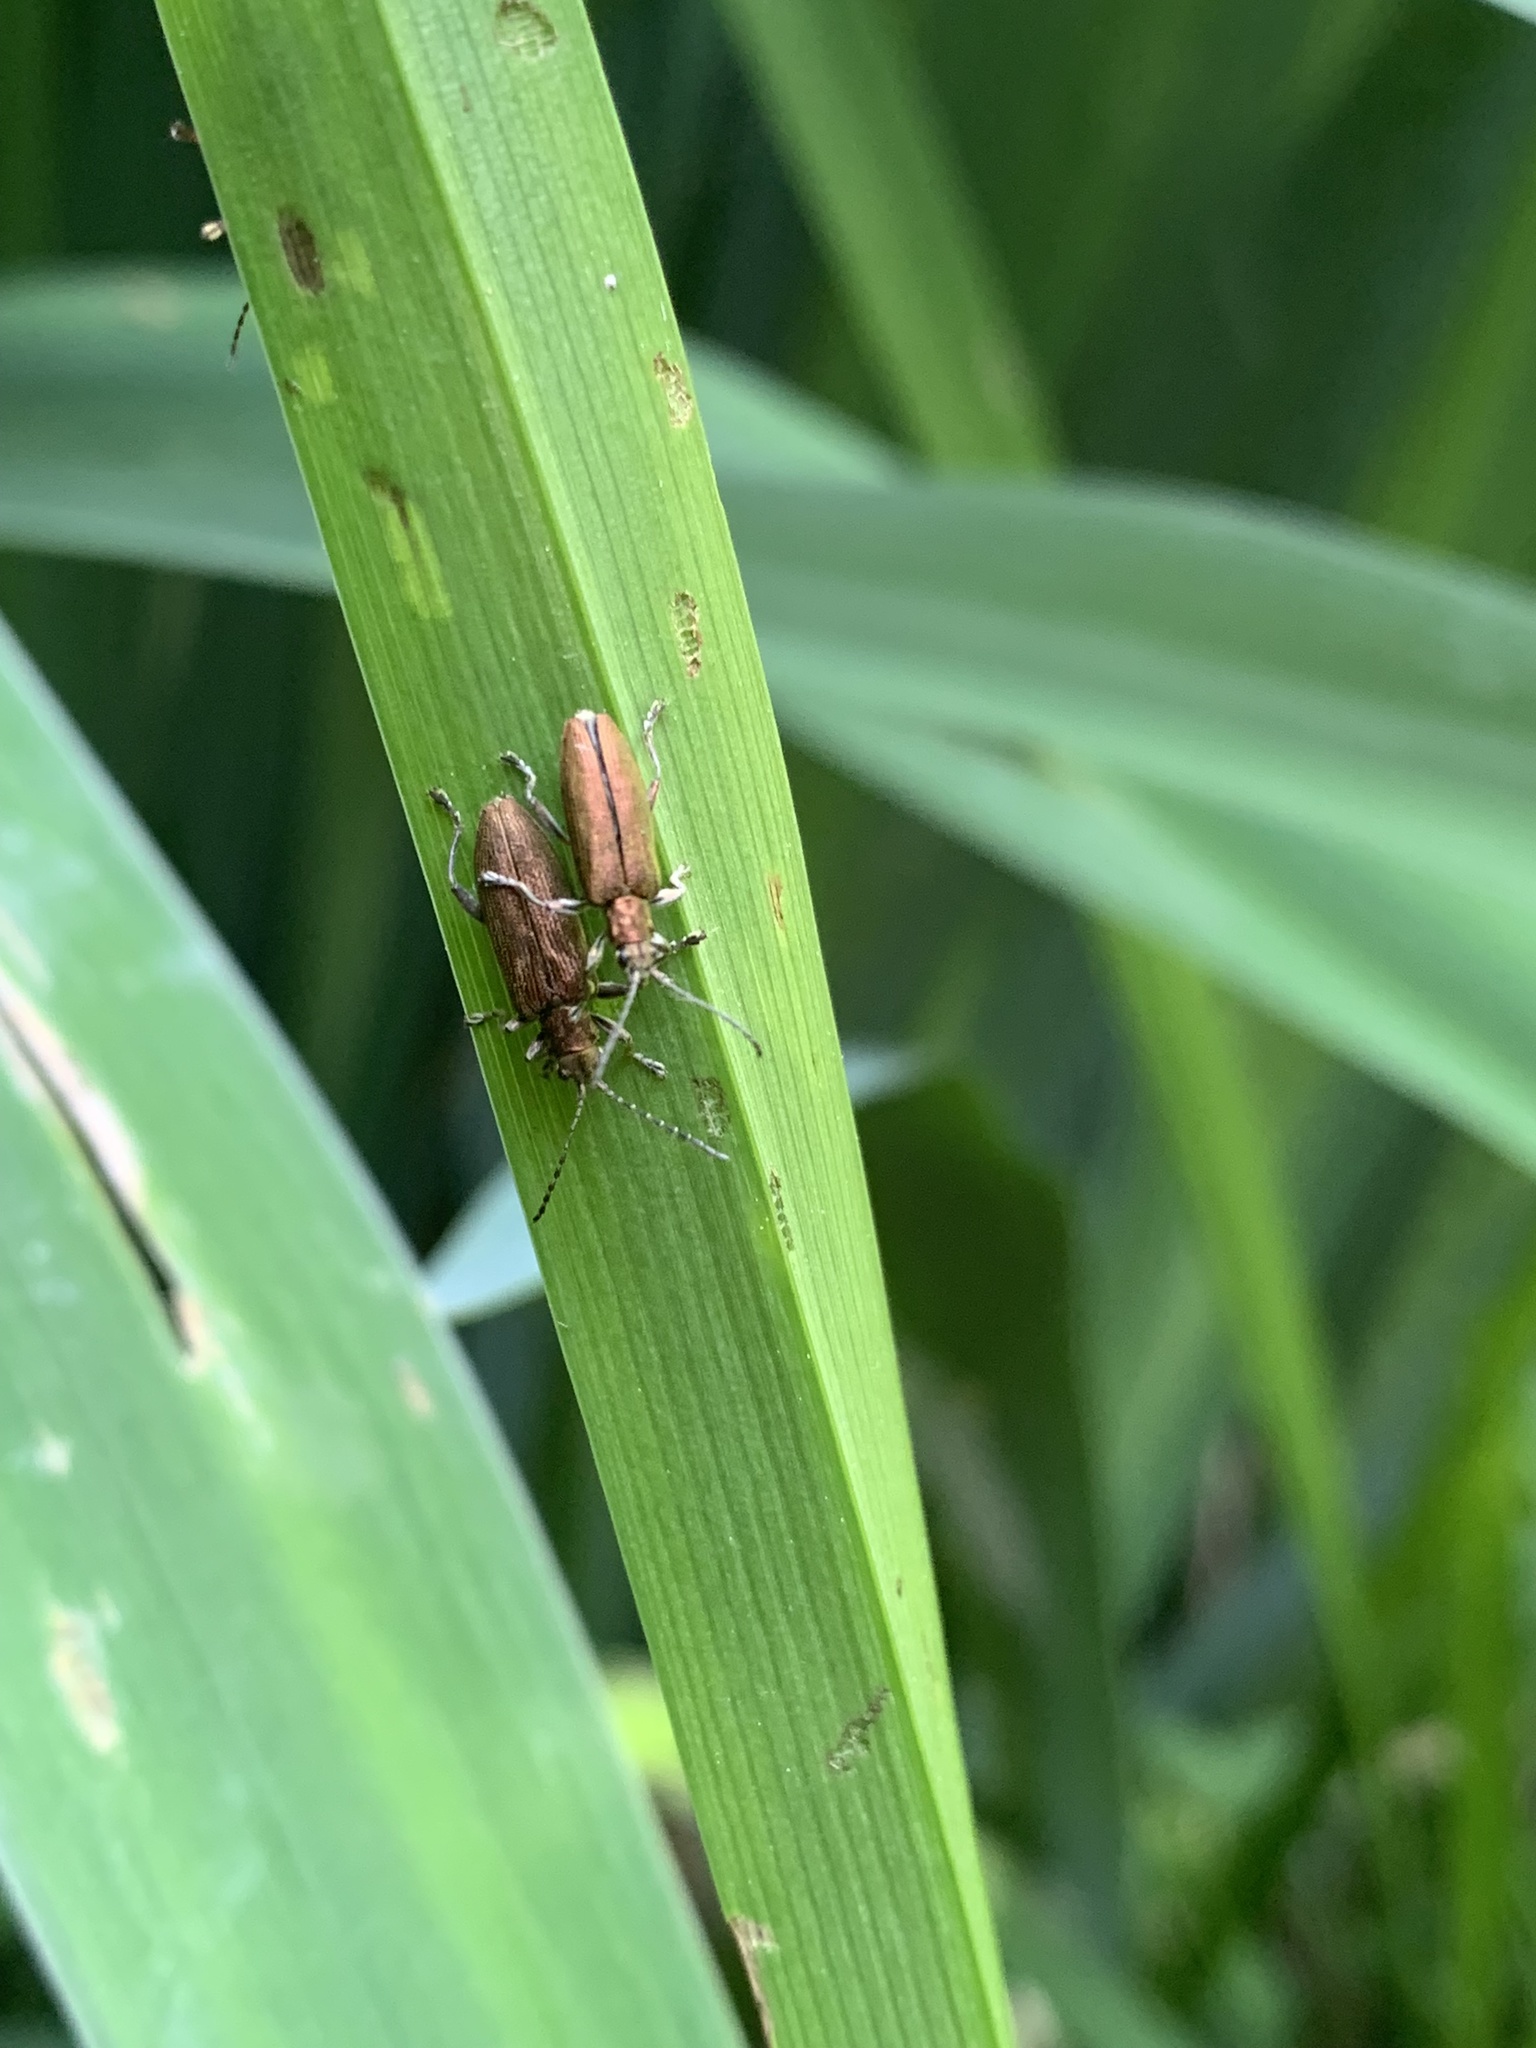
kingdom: Animalia
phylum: Arthropoda
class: Insecta
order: Coleoptera
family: Chrysomelidae
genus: Donacia
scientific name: Donacia simplex
